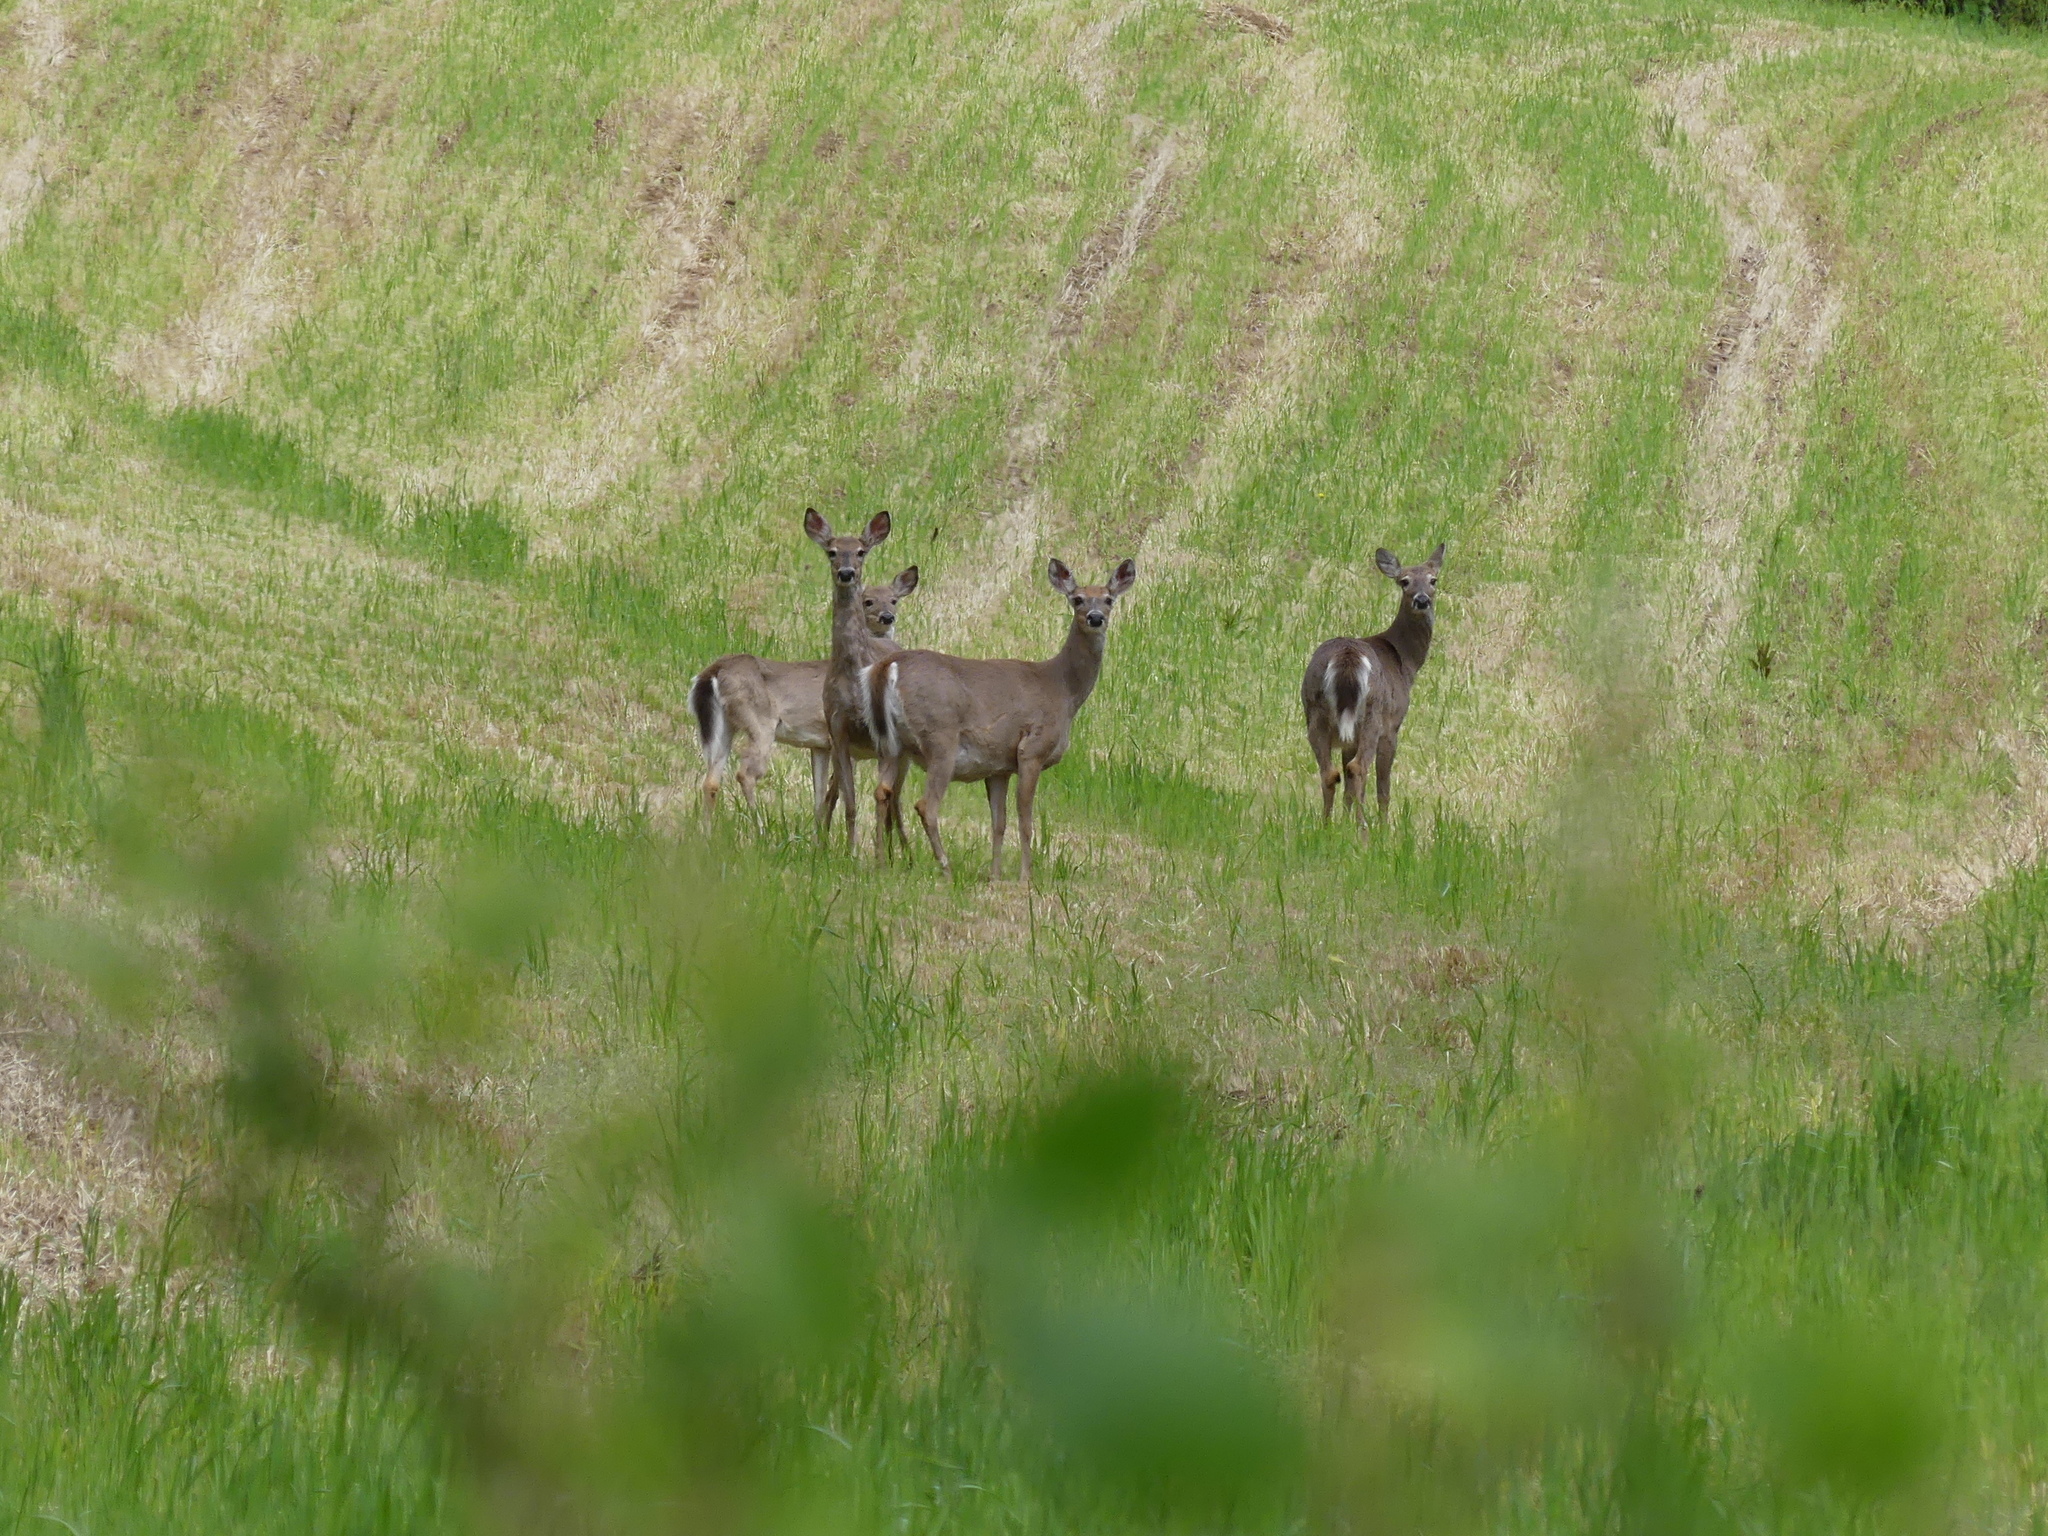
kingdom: Animalia
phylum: Chordata
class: Mammalia
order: Artiodactyla
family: Cervidae
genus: Odocoileus
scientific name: Odocoileus virginianus
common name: White-tailed deer
